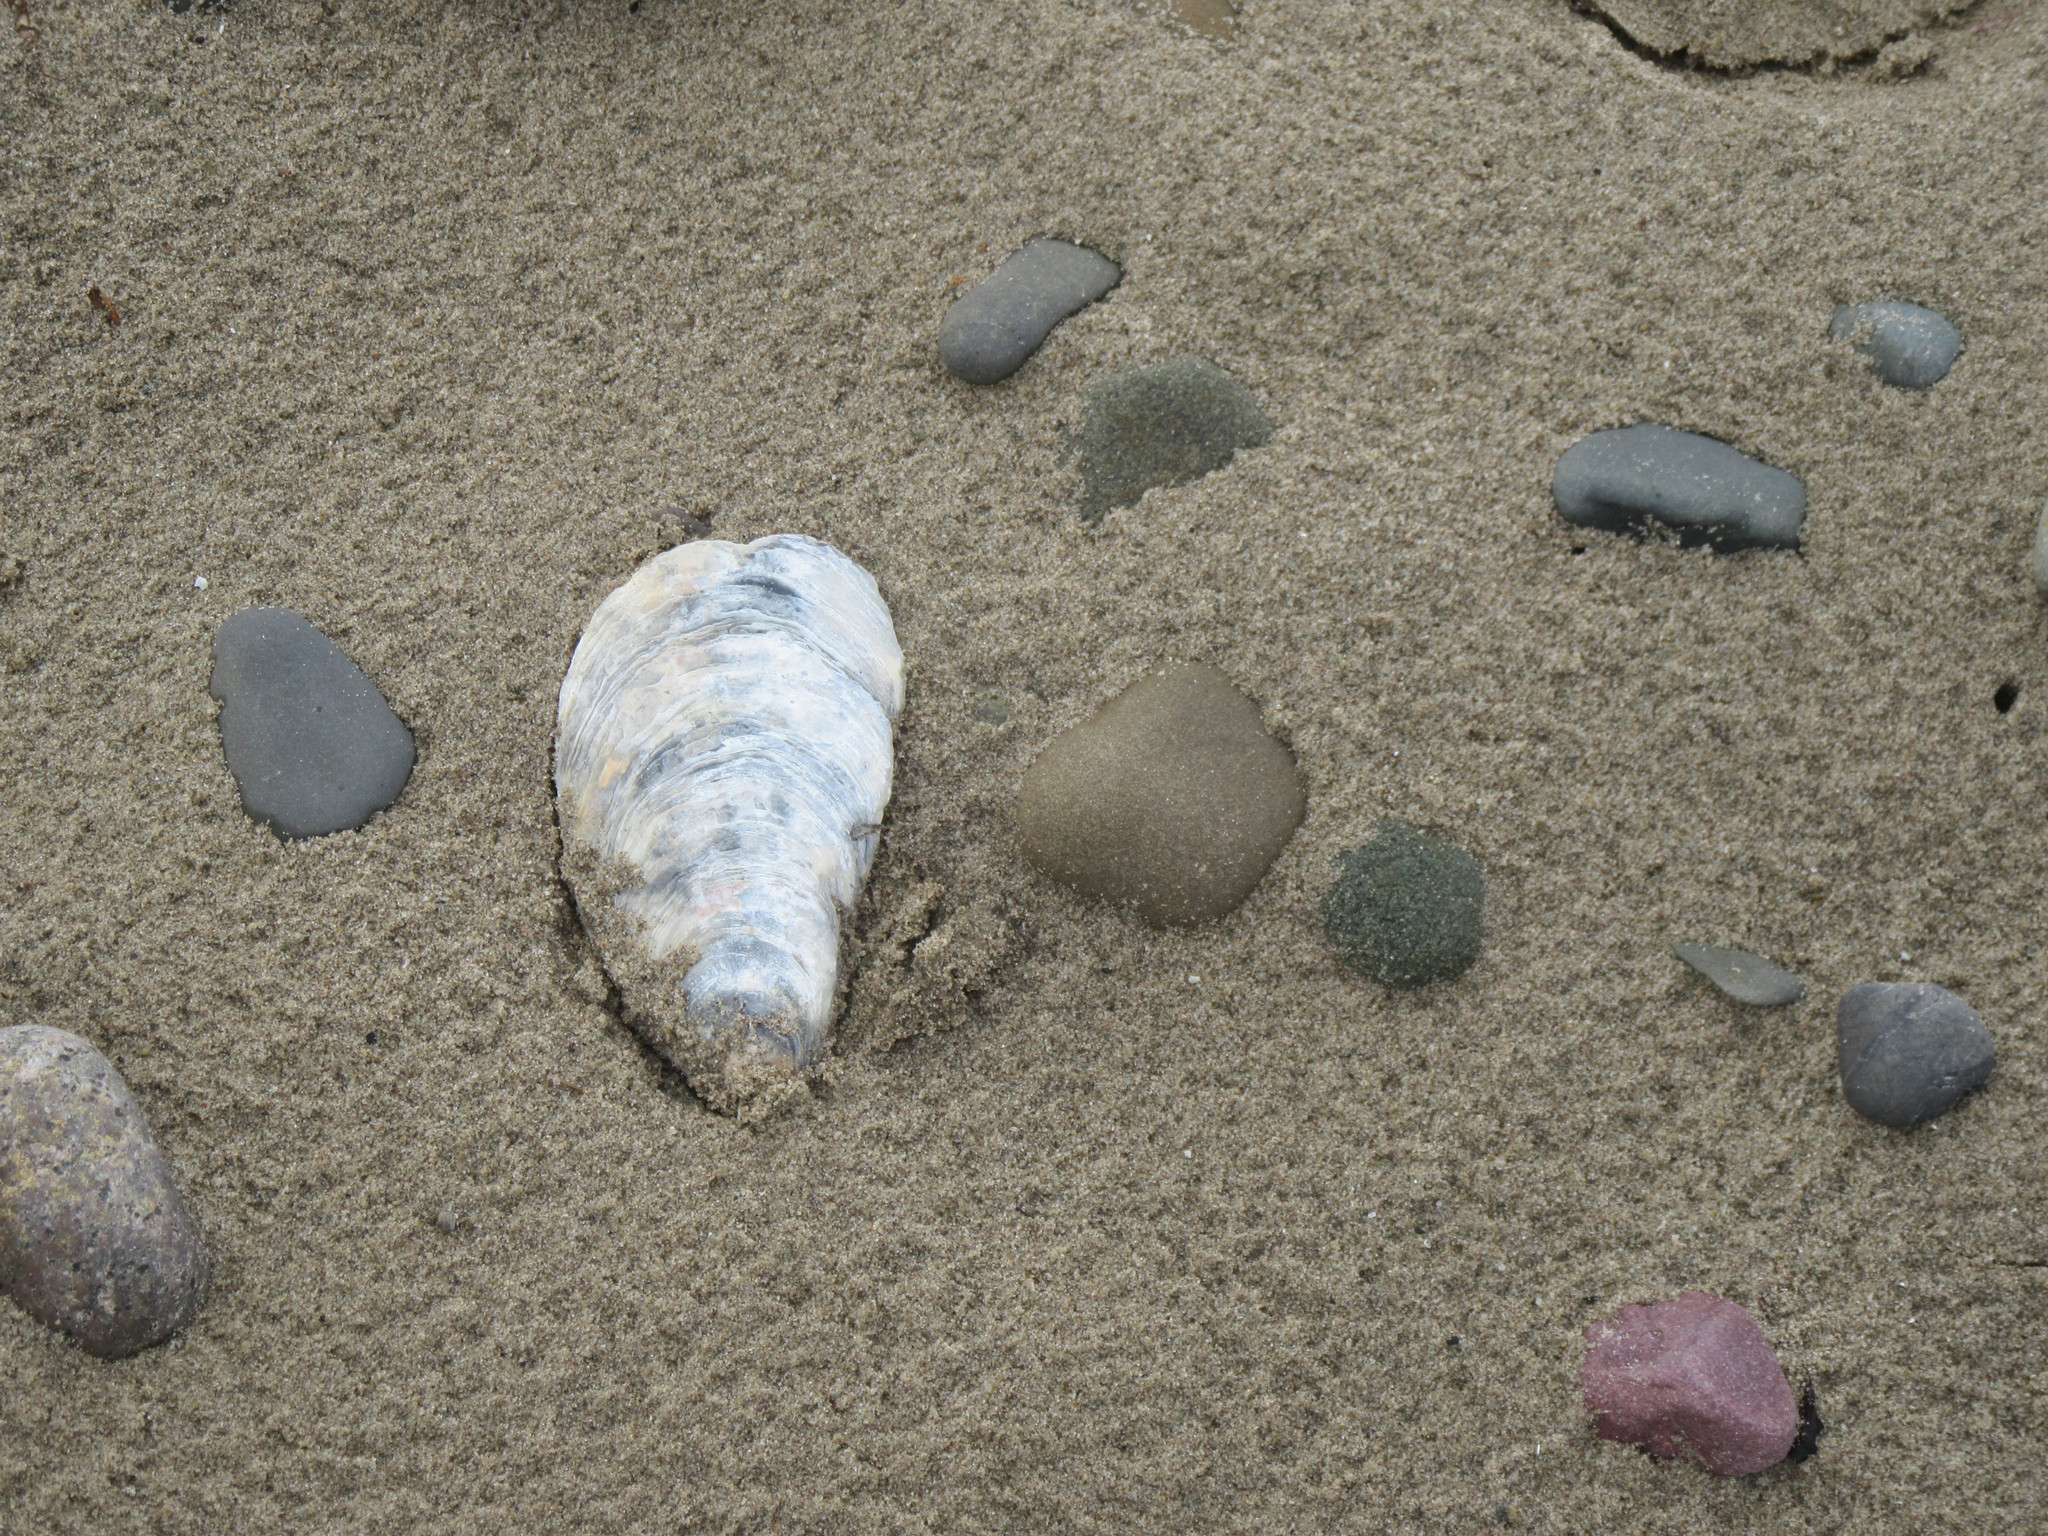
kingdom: Animalia
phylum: Mollusca
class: Bivalvia
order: Ostreida
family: Ostreidae
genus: Crassostrea
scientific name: Crassostrea virginica
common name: American oyster
